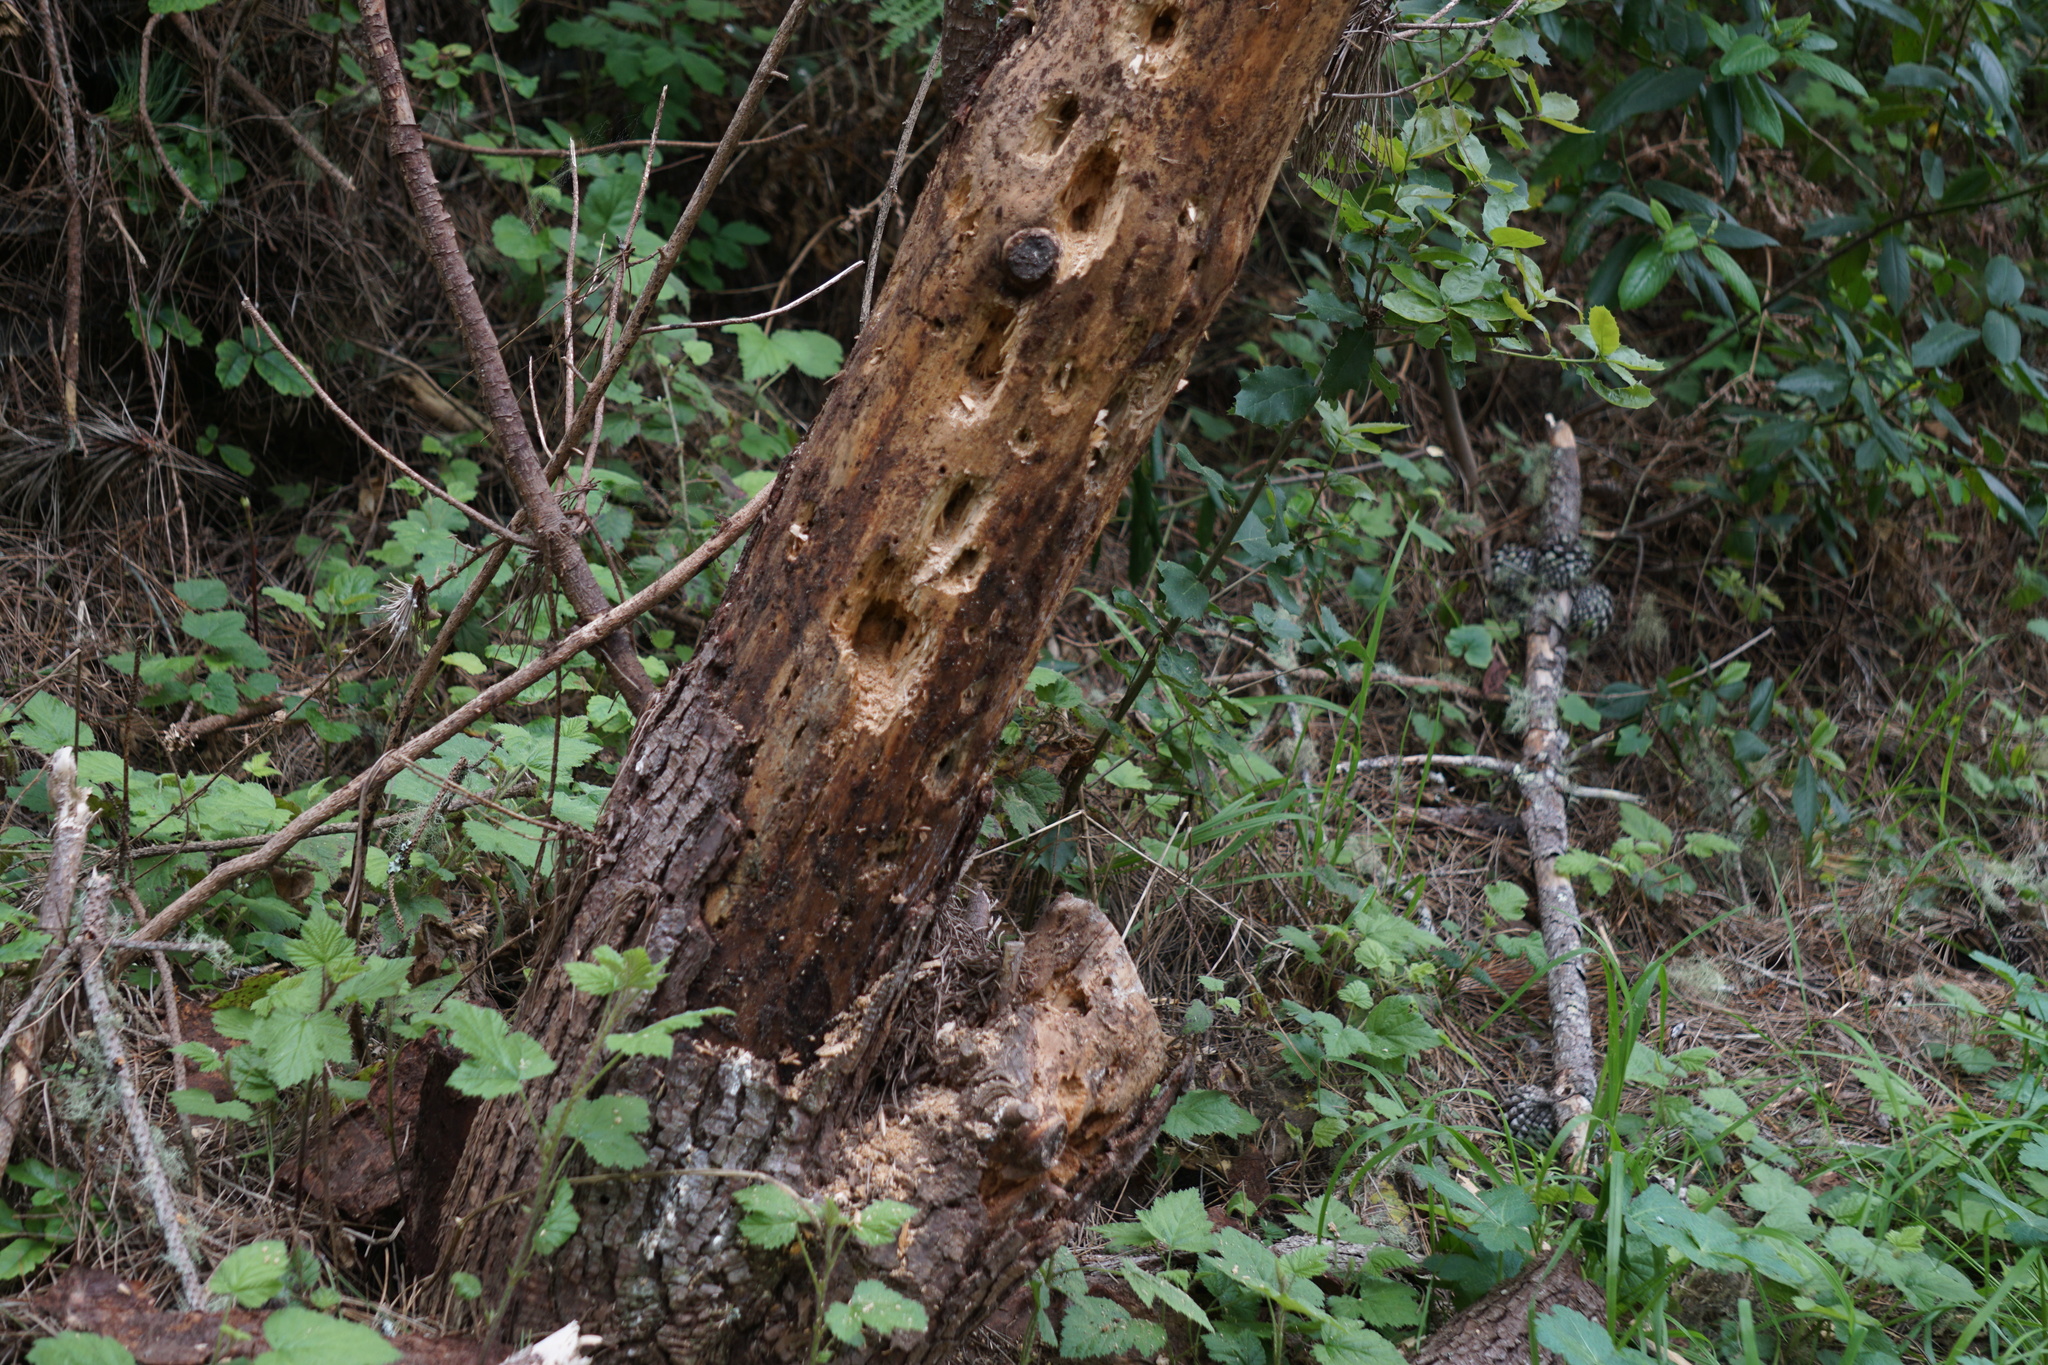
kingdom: Animalia
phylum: Chordata
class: Aves
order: Piciformes
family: Picidae
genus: Dryocopus
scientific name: Dryocopus pileatus
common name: Pileated woodpecker
